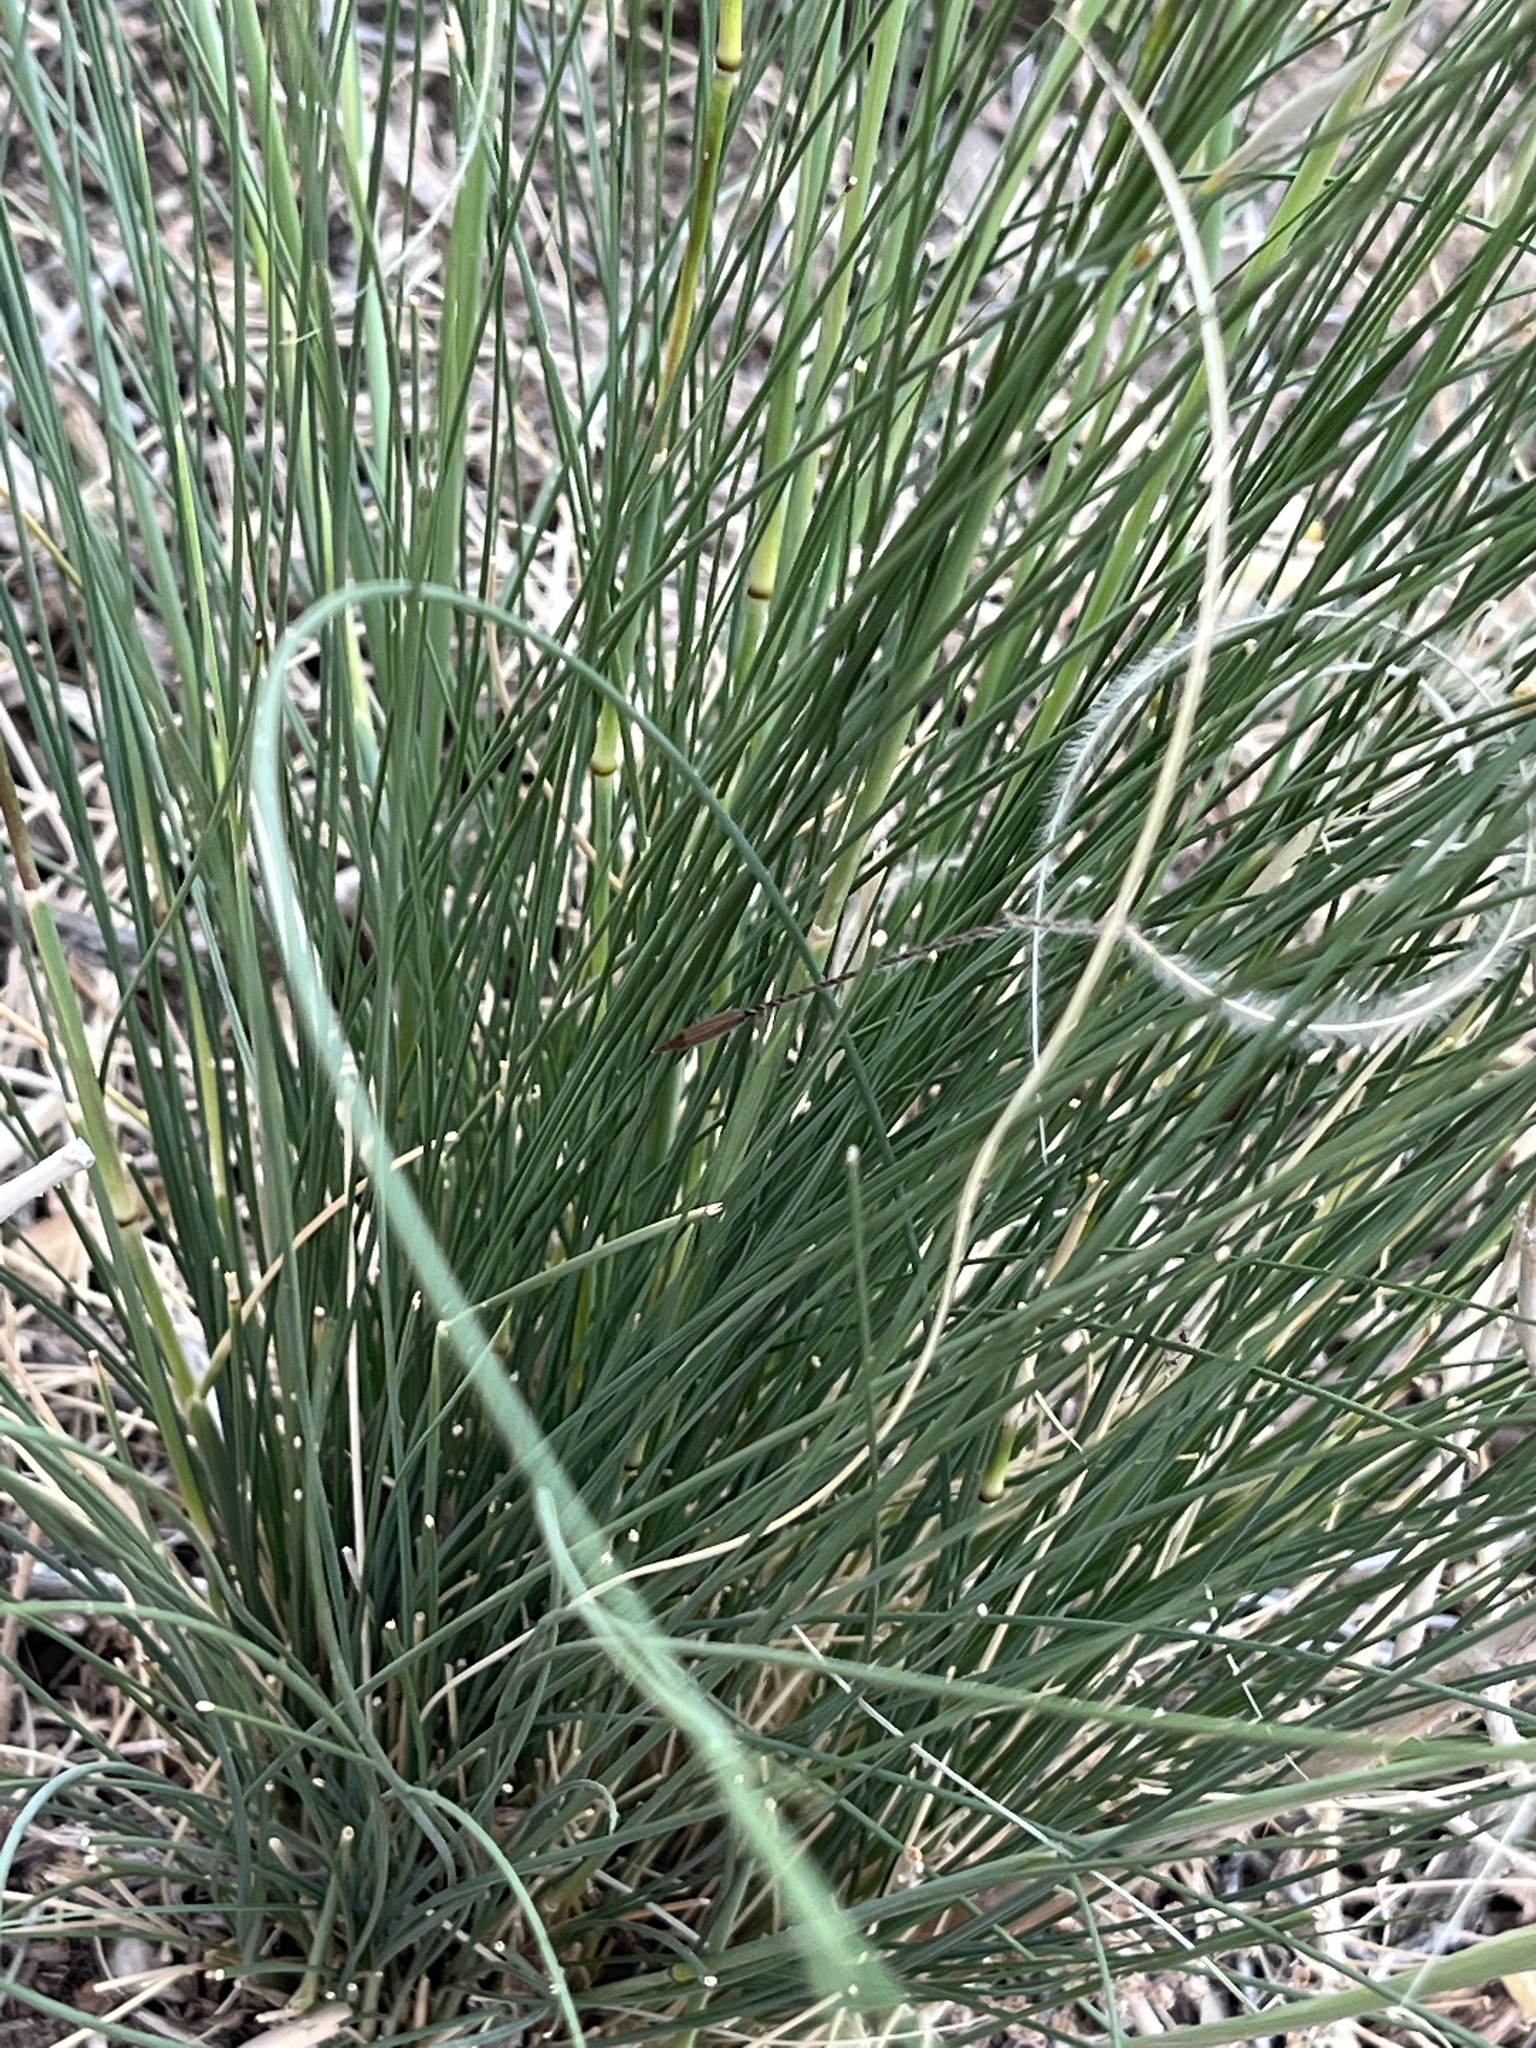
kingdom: Plantae
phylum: Tracheophyta
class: Liliopsida
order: Poales
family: Poaceae
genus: Hesperostipa
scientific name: Hesperostipa neomexicana
